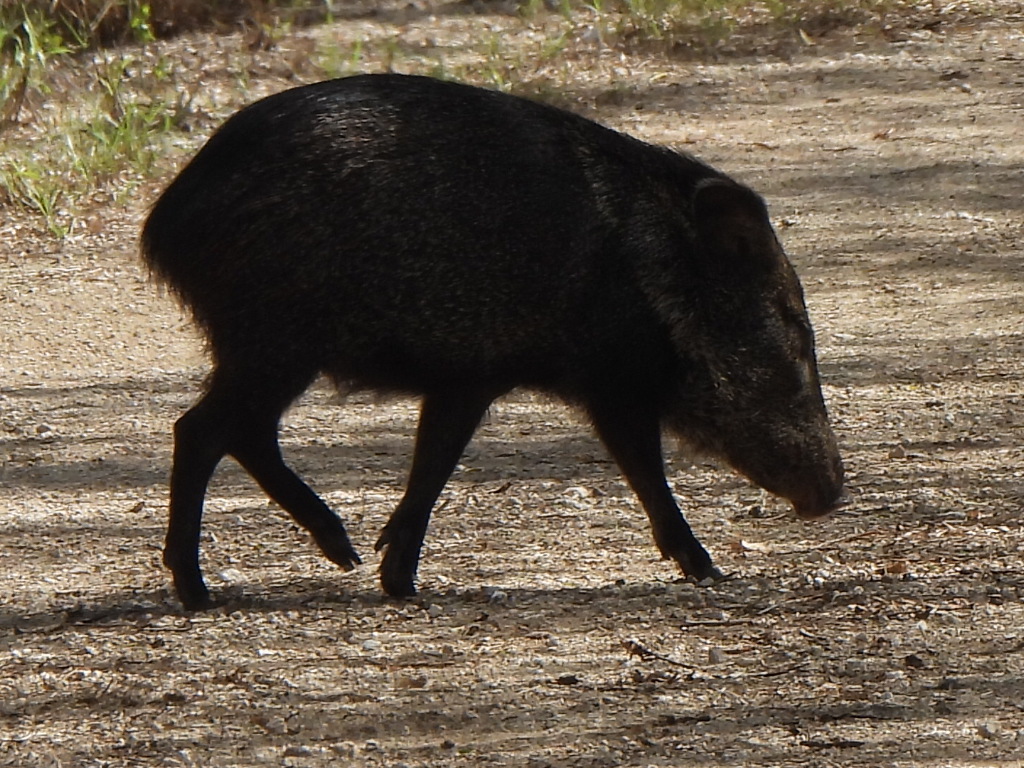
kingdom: Animalia
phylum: Chordata
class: Mammalia
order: Artiodactyla
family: Tayassuidae
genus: Pecari
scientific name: Pecari tajacu
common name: Collared peccary
